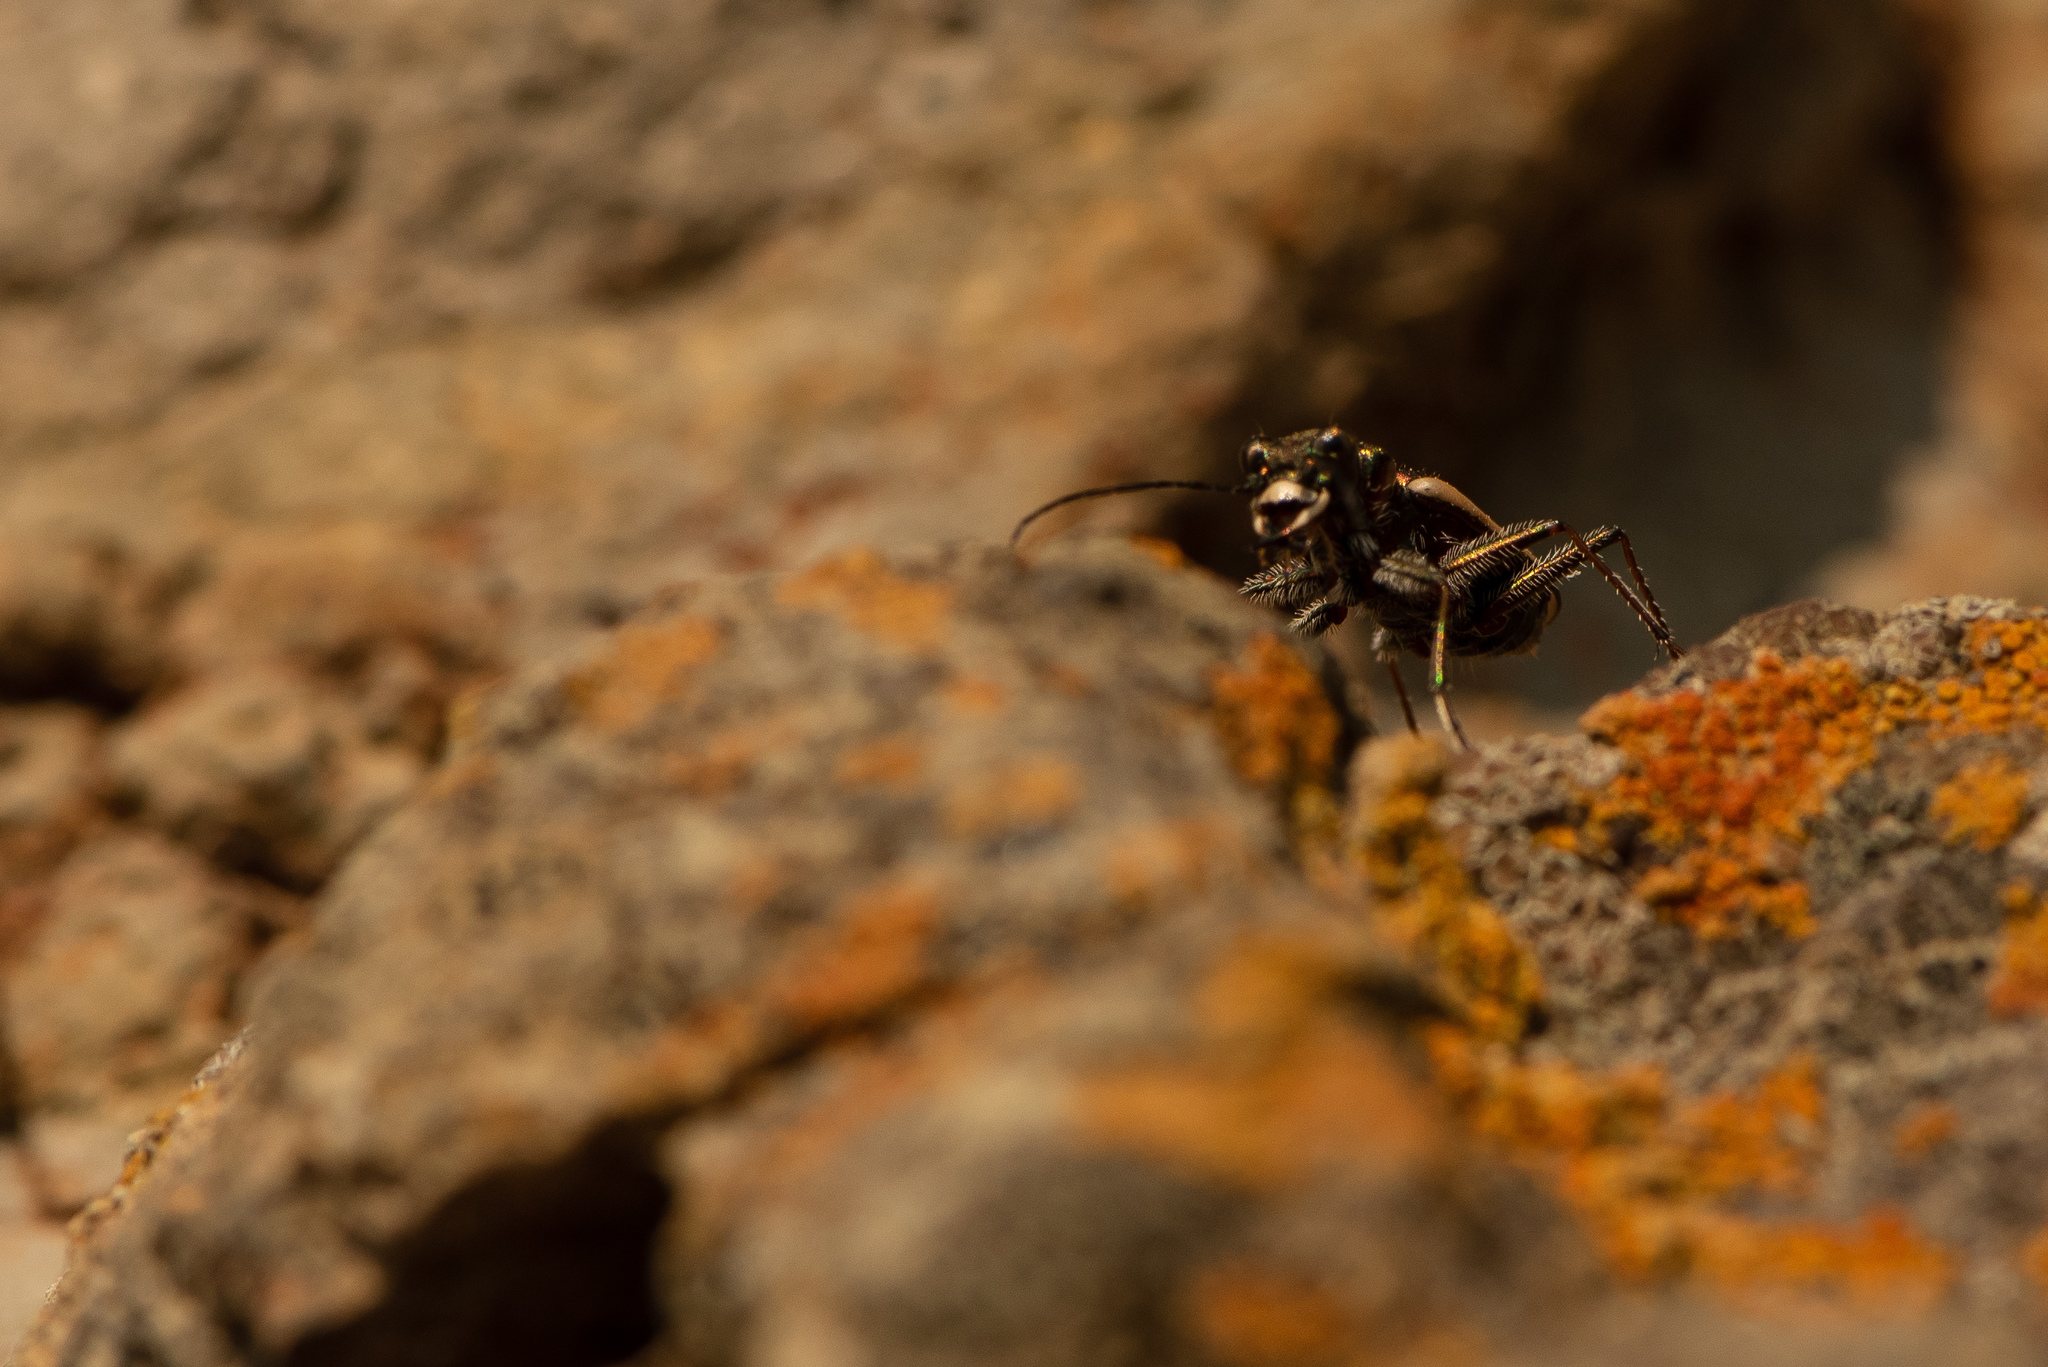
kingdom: Animalia
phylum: Arthropoda
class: Insecta
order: Coleoptera
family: Carabidae
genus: Neocicindela
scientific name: Neocicindela latecincta
